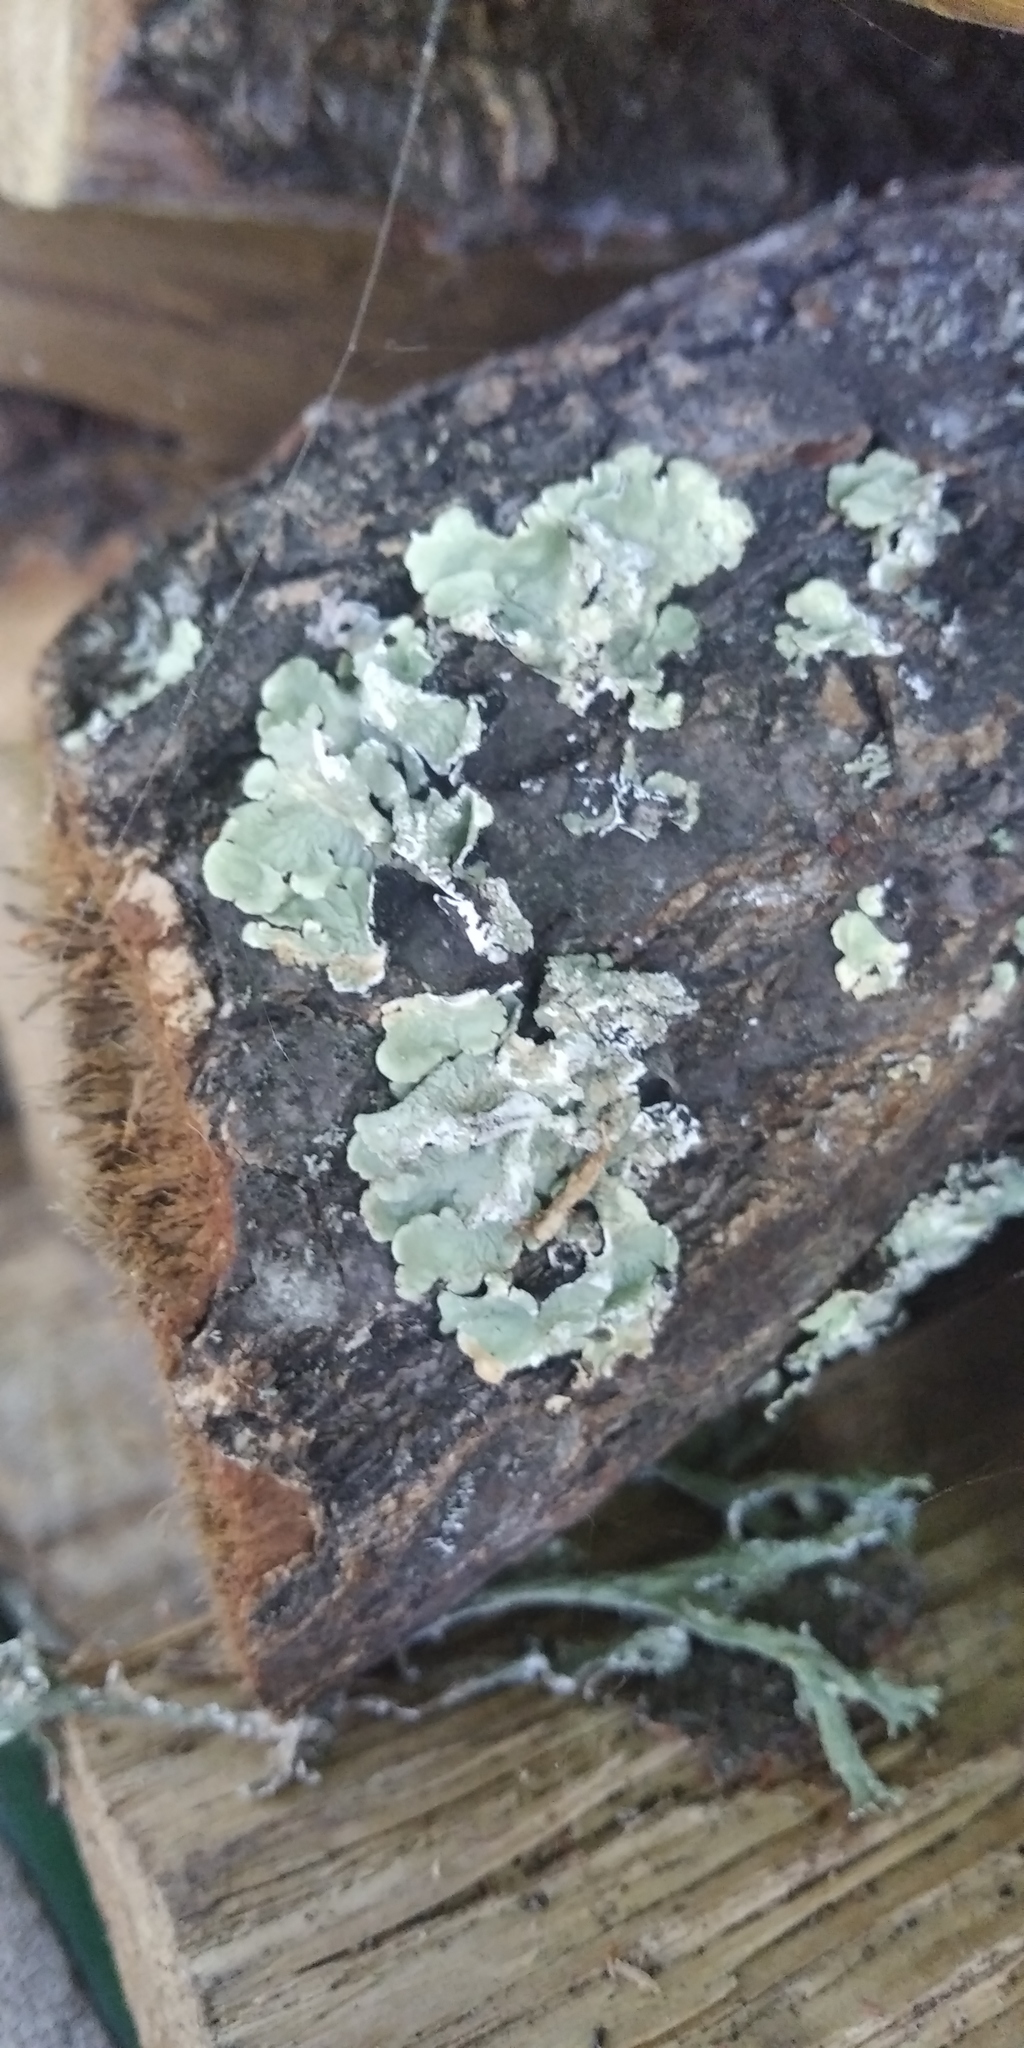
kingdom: Fungi
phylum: Ascomycota
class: Lecanoromycetes
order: Lecanorales
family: Parmeliaceae
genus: Flavoparmelia
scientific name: Flavoparmelia caperata
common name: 40-mile per hour lichen
